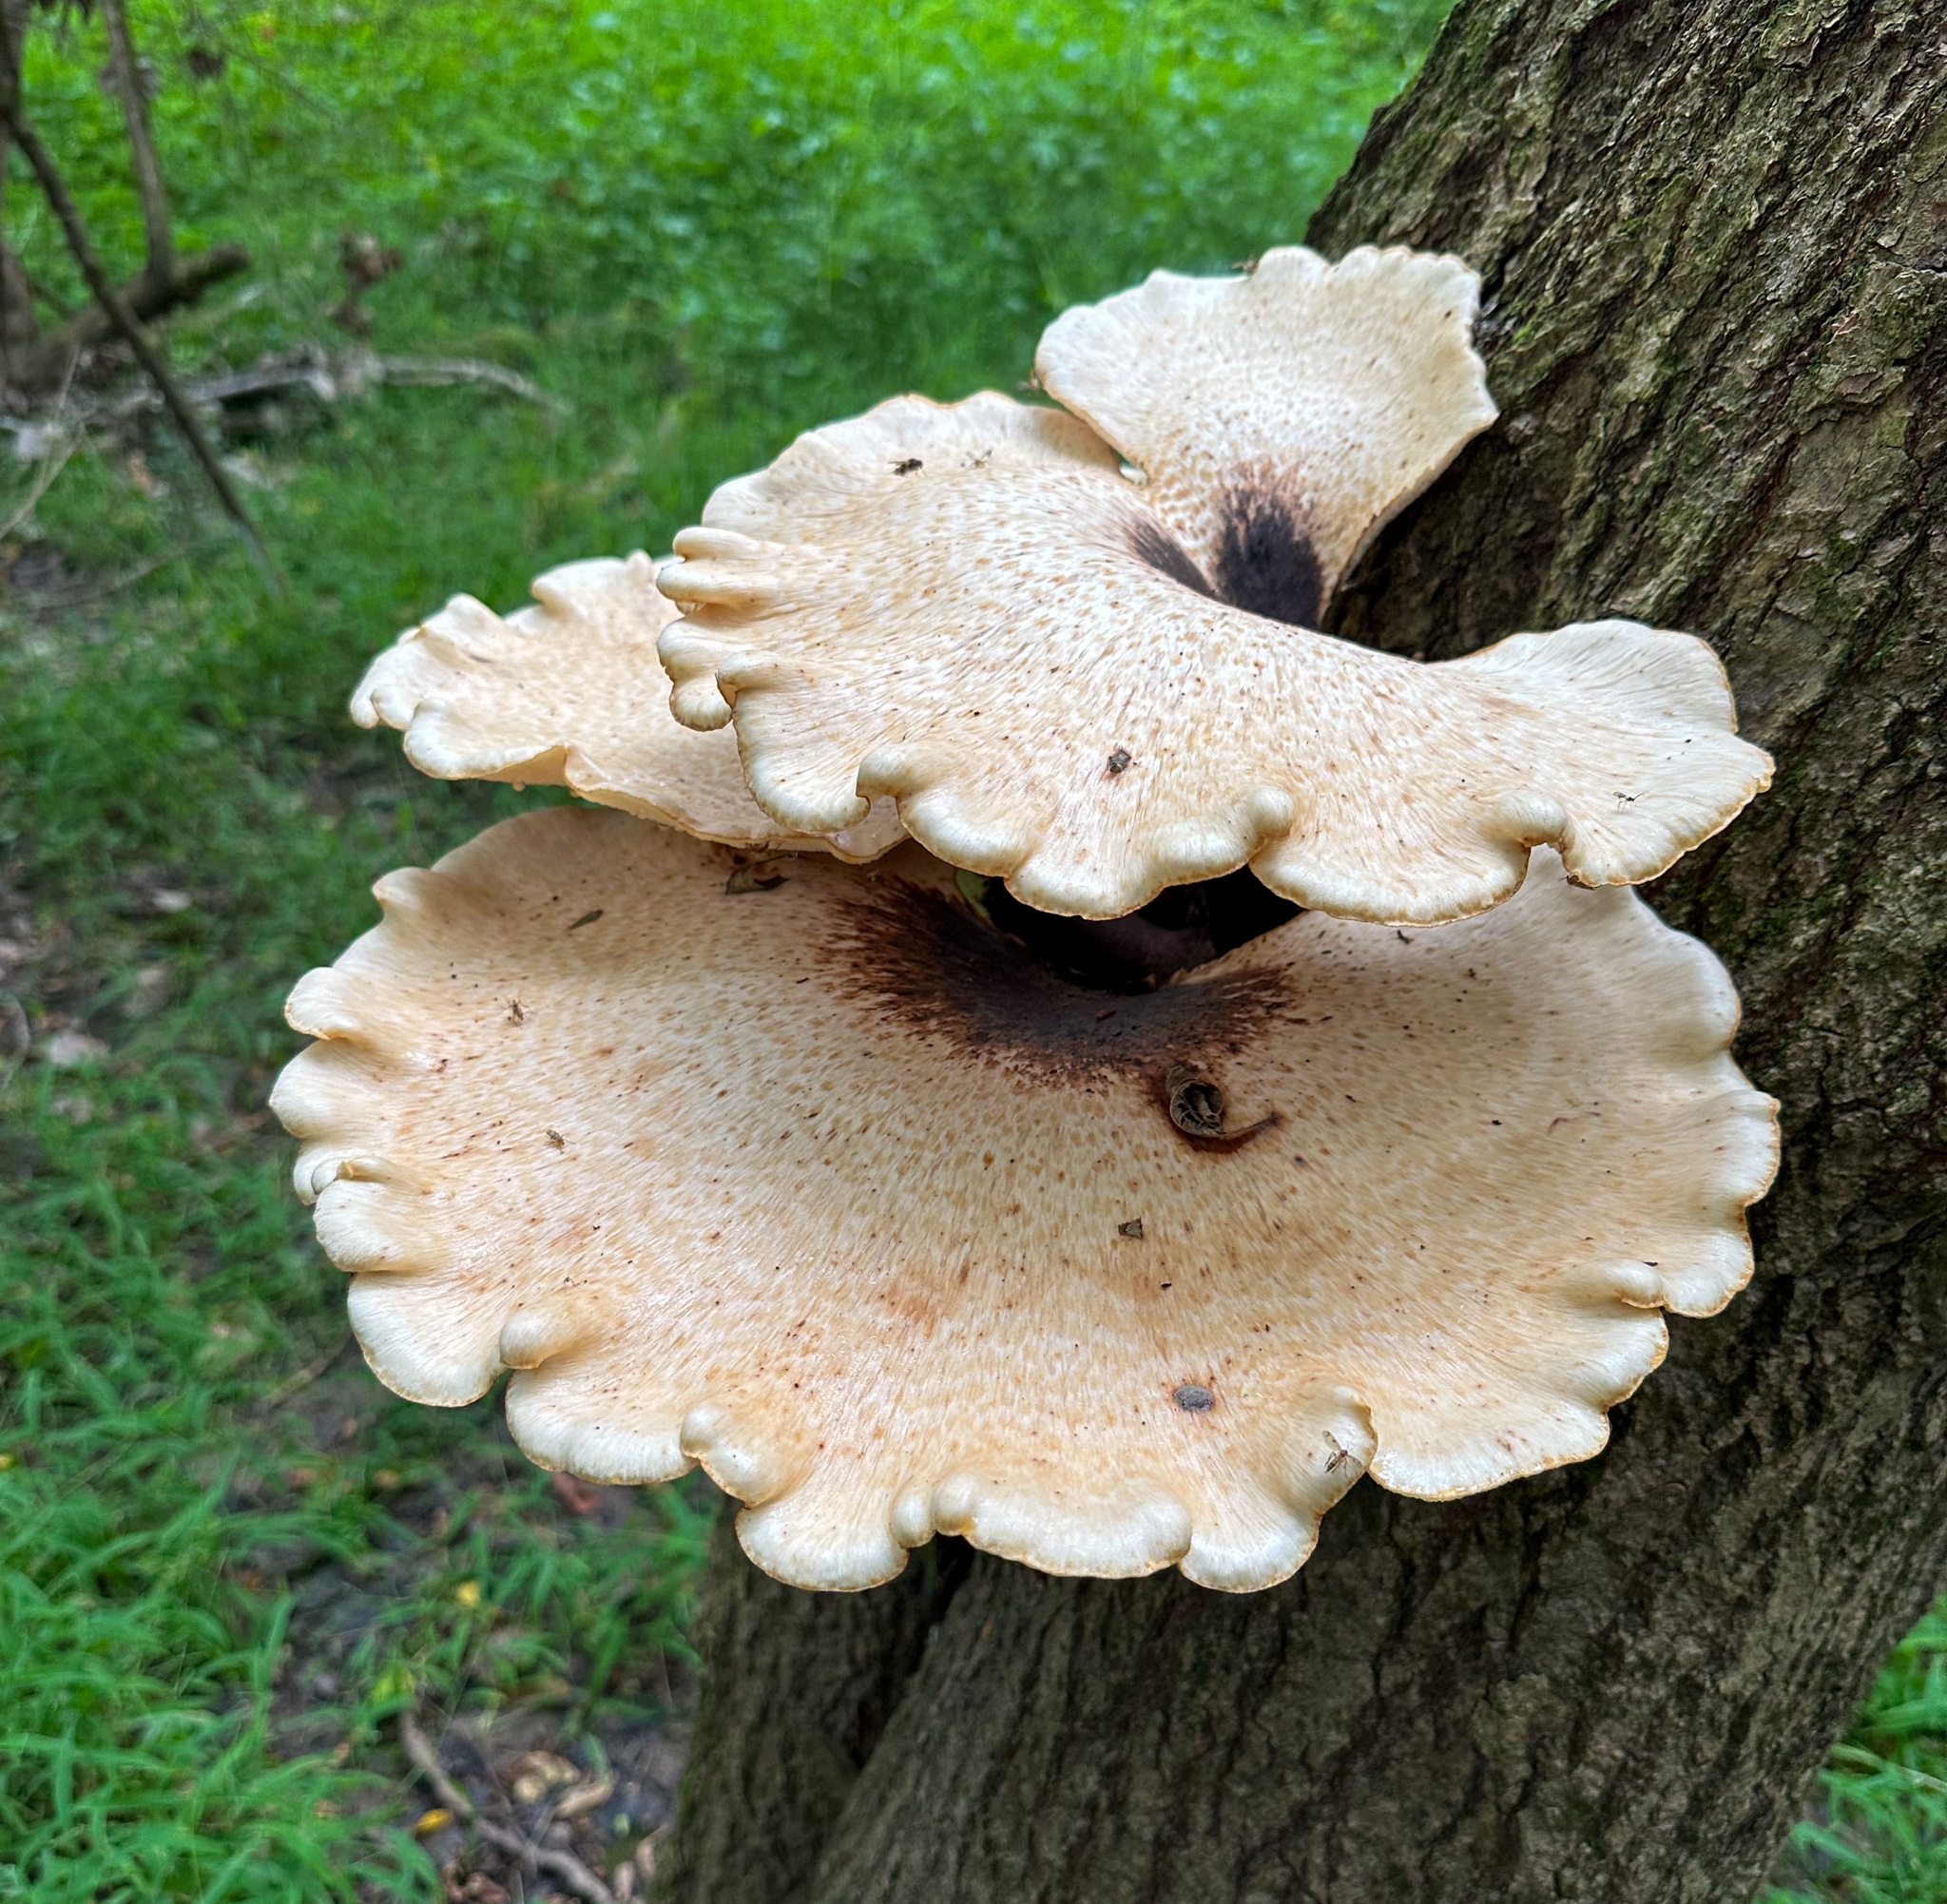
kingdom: Fungi
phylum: Basidiomycota
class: Agaricomycetes
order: Polyporales
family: Polyporaceae
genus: Cerioporus
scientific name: Cerioporus squamosus
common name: Dryad's saddle
